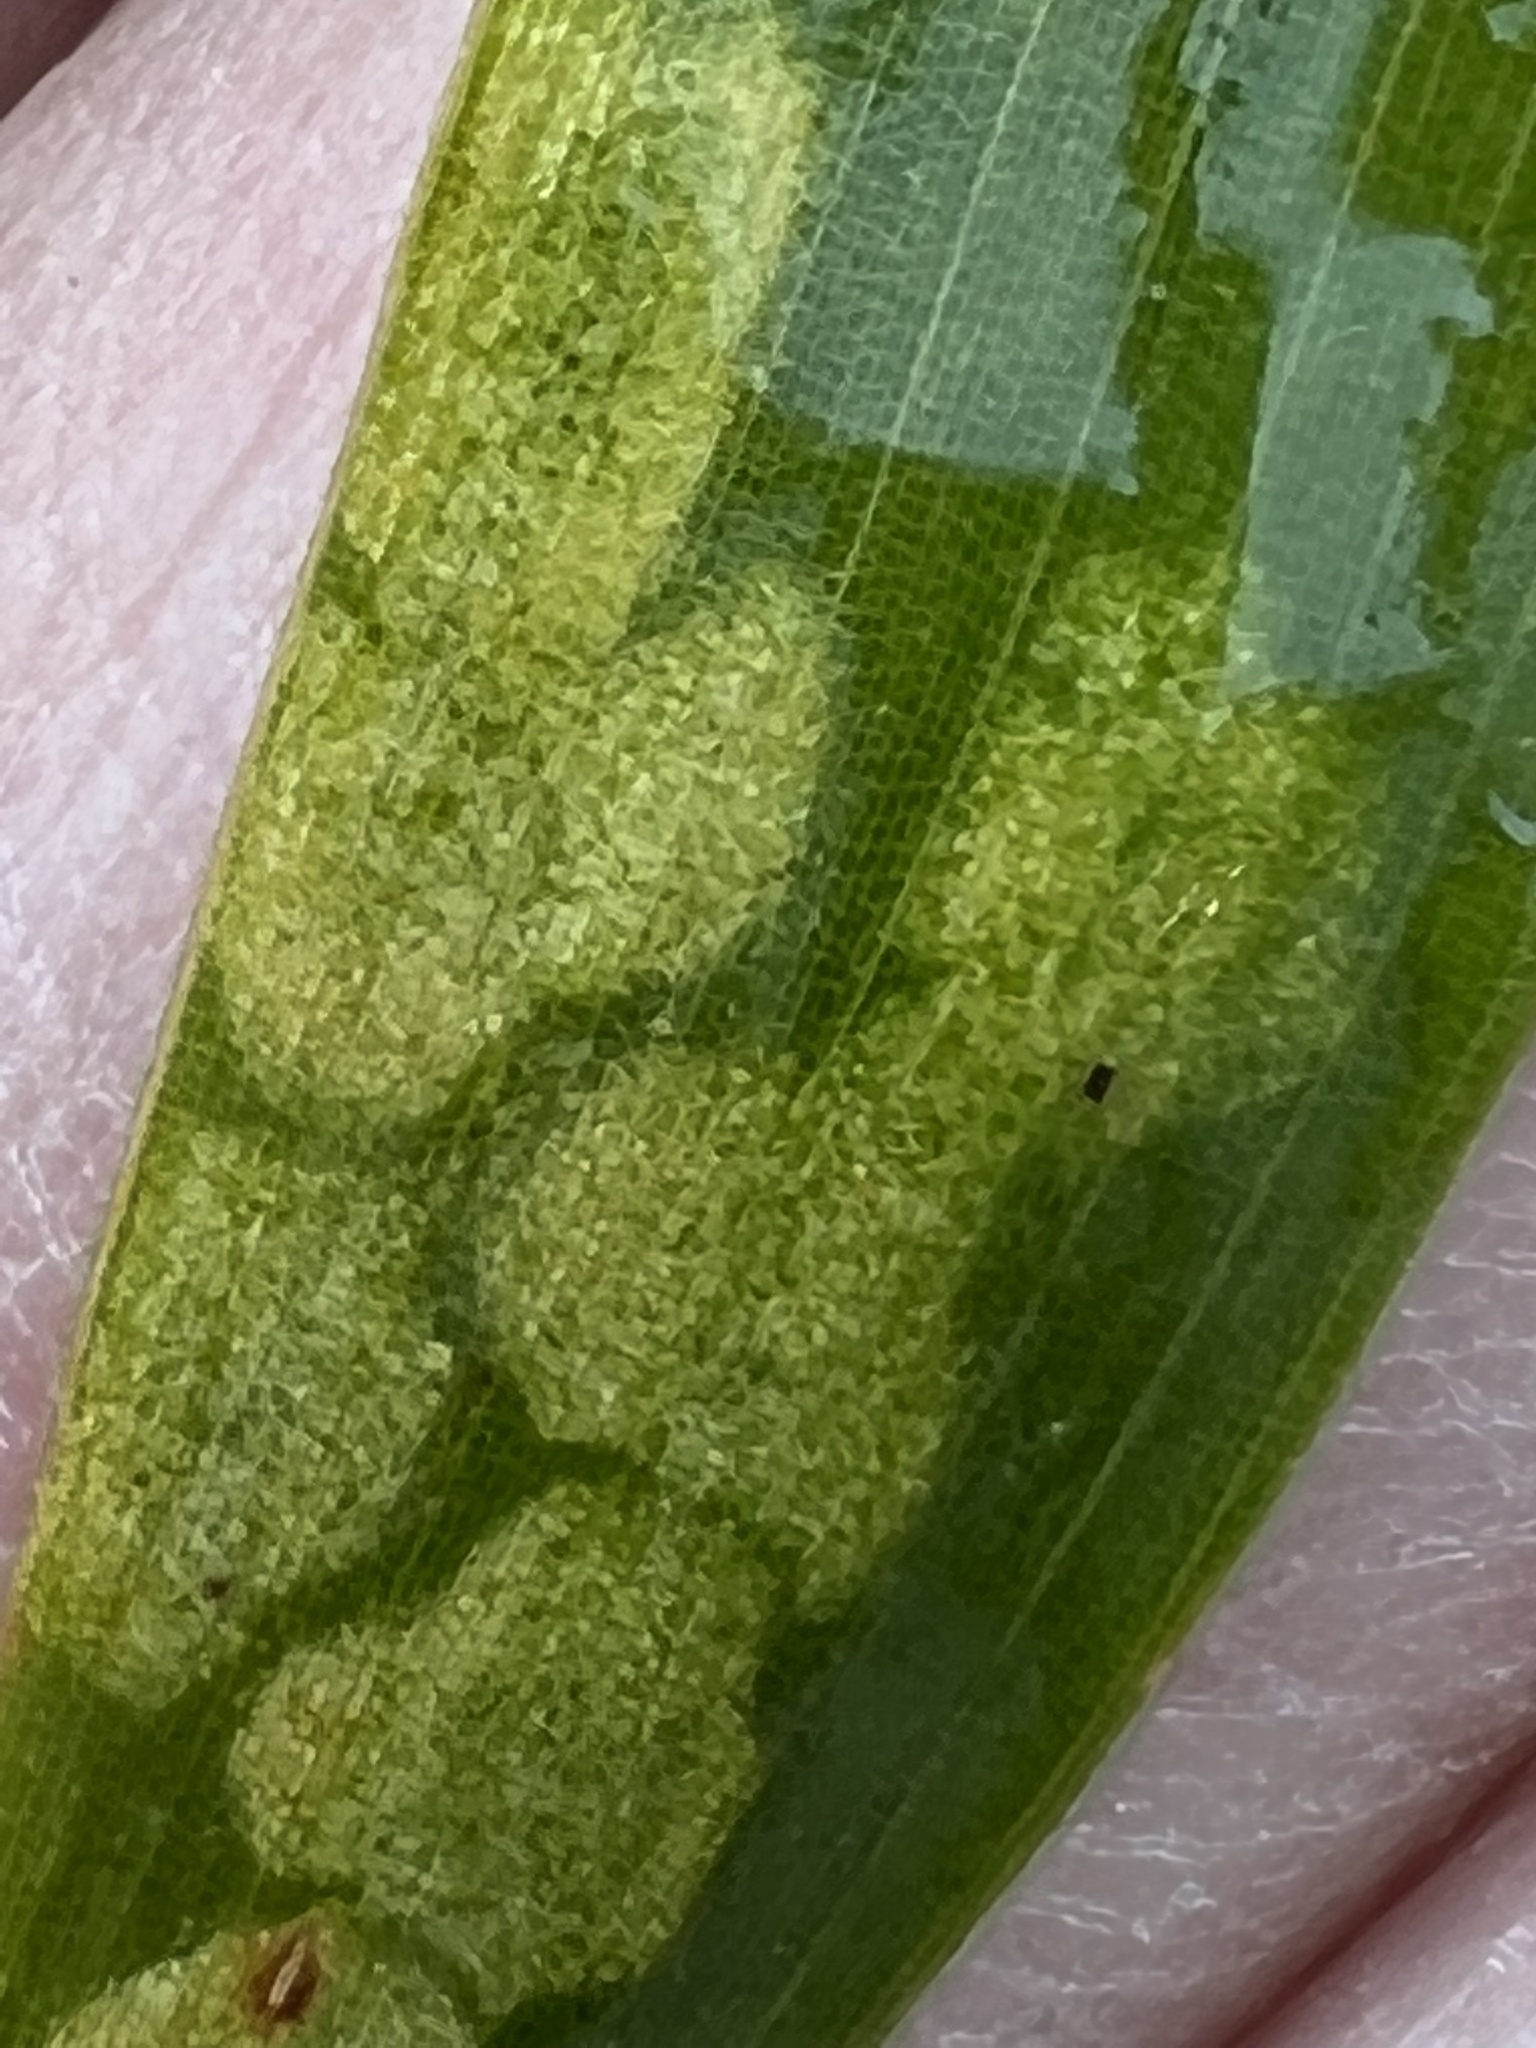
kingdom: Animalia
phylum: Arthropoda
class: Arachnida
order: Trombidiformes
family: Tetranychidae
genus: Stigmaeopsis
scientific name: Stigmaeopsis celarius
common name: Bamboo spider mite
